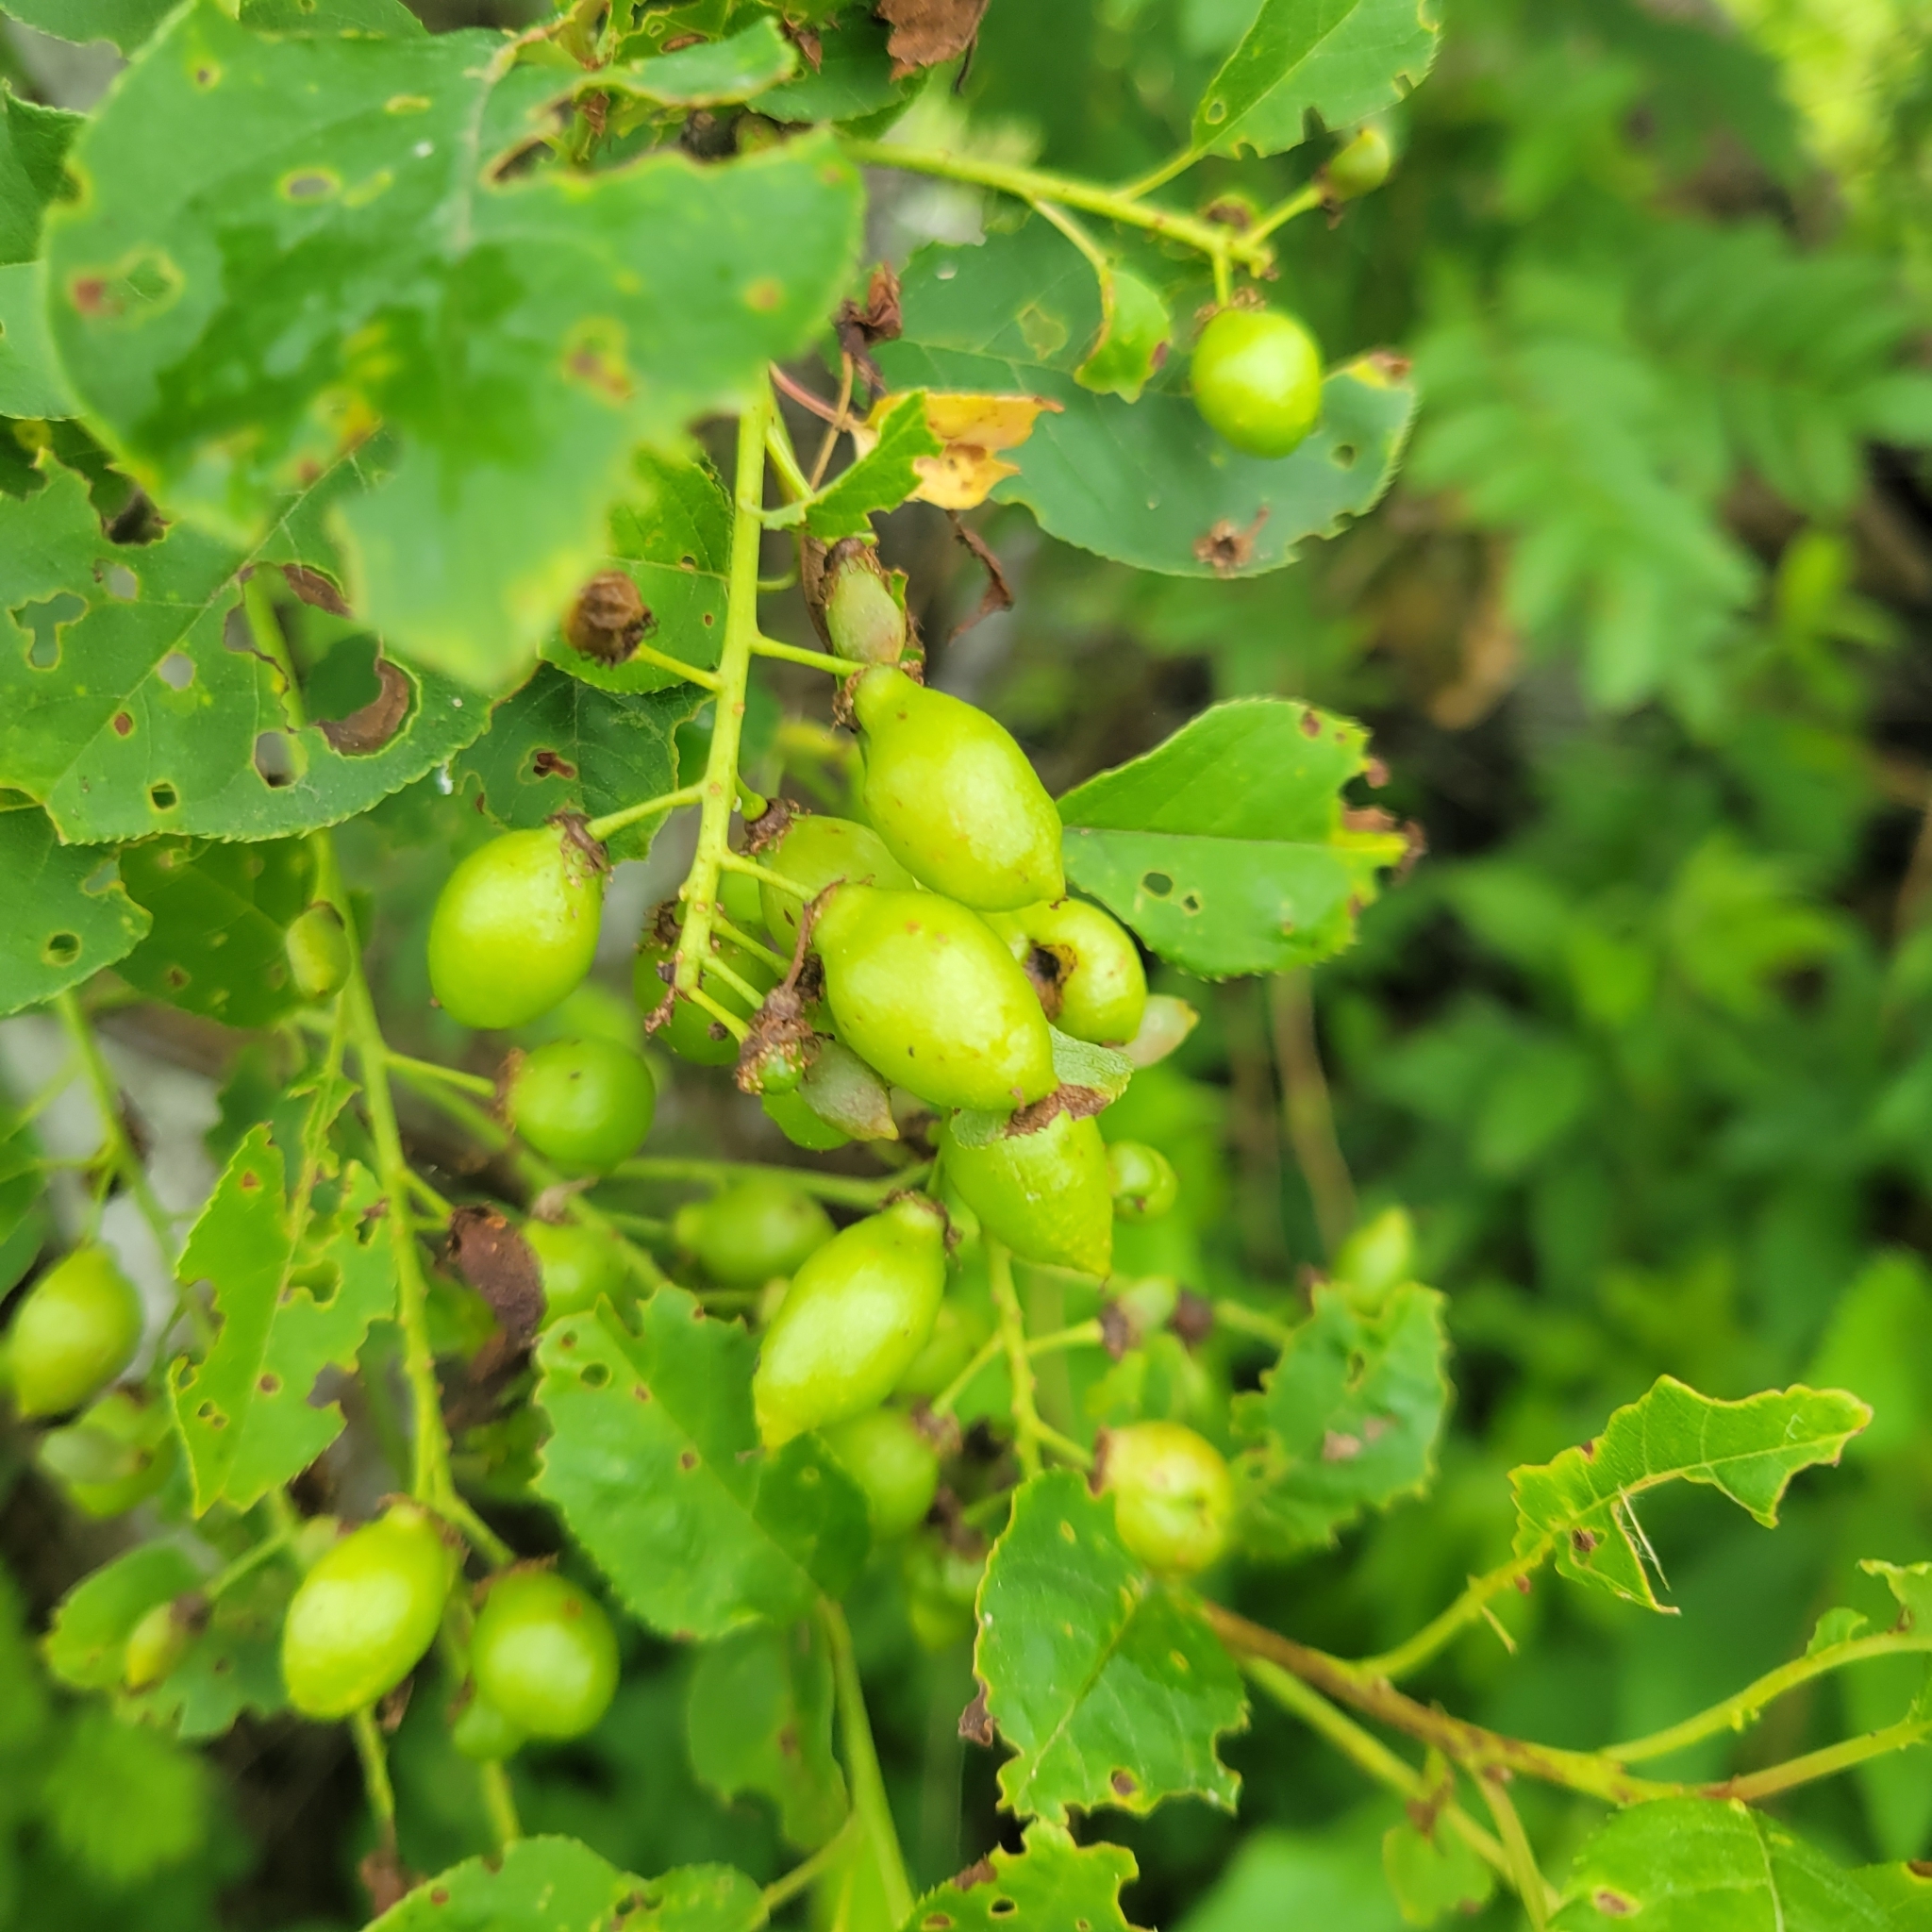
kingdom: Animalia
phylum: Arthropoda
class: Insecta
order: Diptera
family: Cecidomyiidae
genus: Contarinia
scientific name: Contarinia virginianiae
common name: Chokecherry midge
